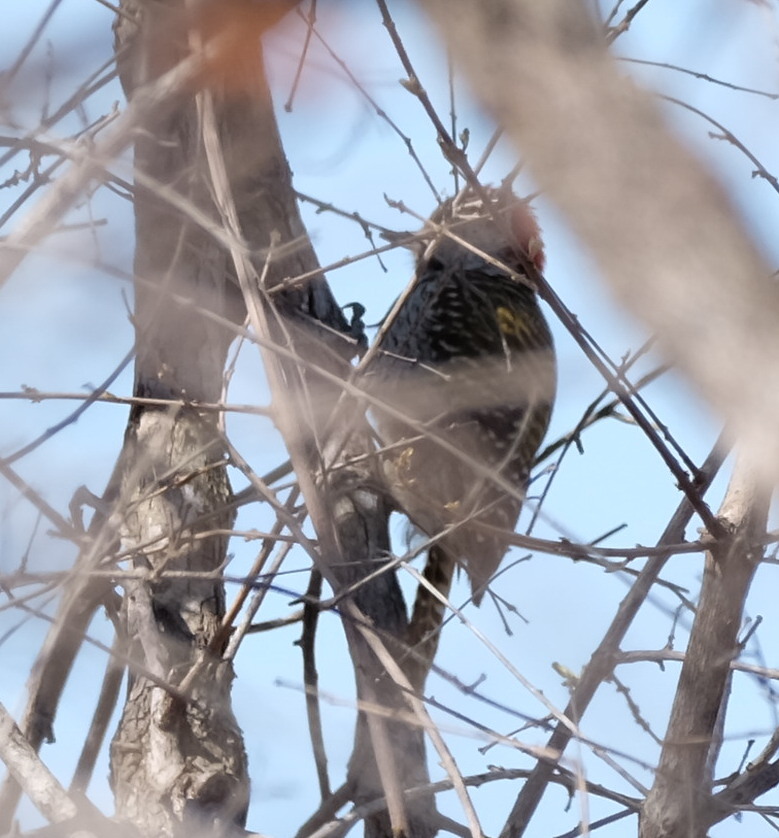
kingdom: Animalia
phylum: Chordata
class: Aves
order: Piciformes
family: Picidae
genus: Dendropicos
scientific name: Dendropicos fuscescens
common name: Cardinal woodpecker
